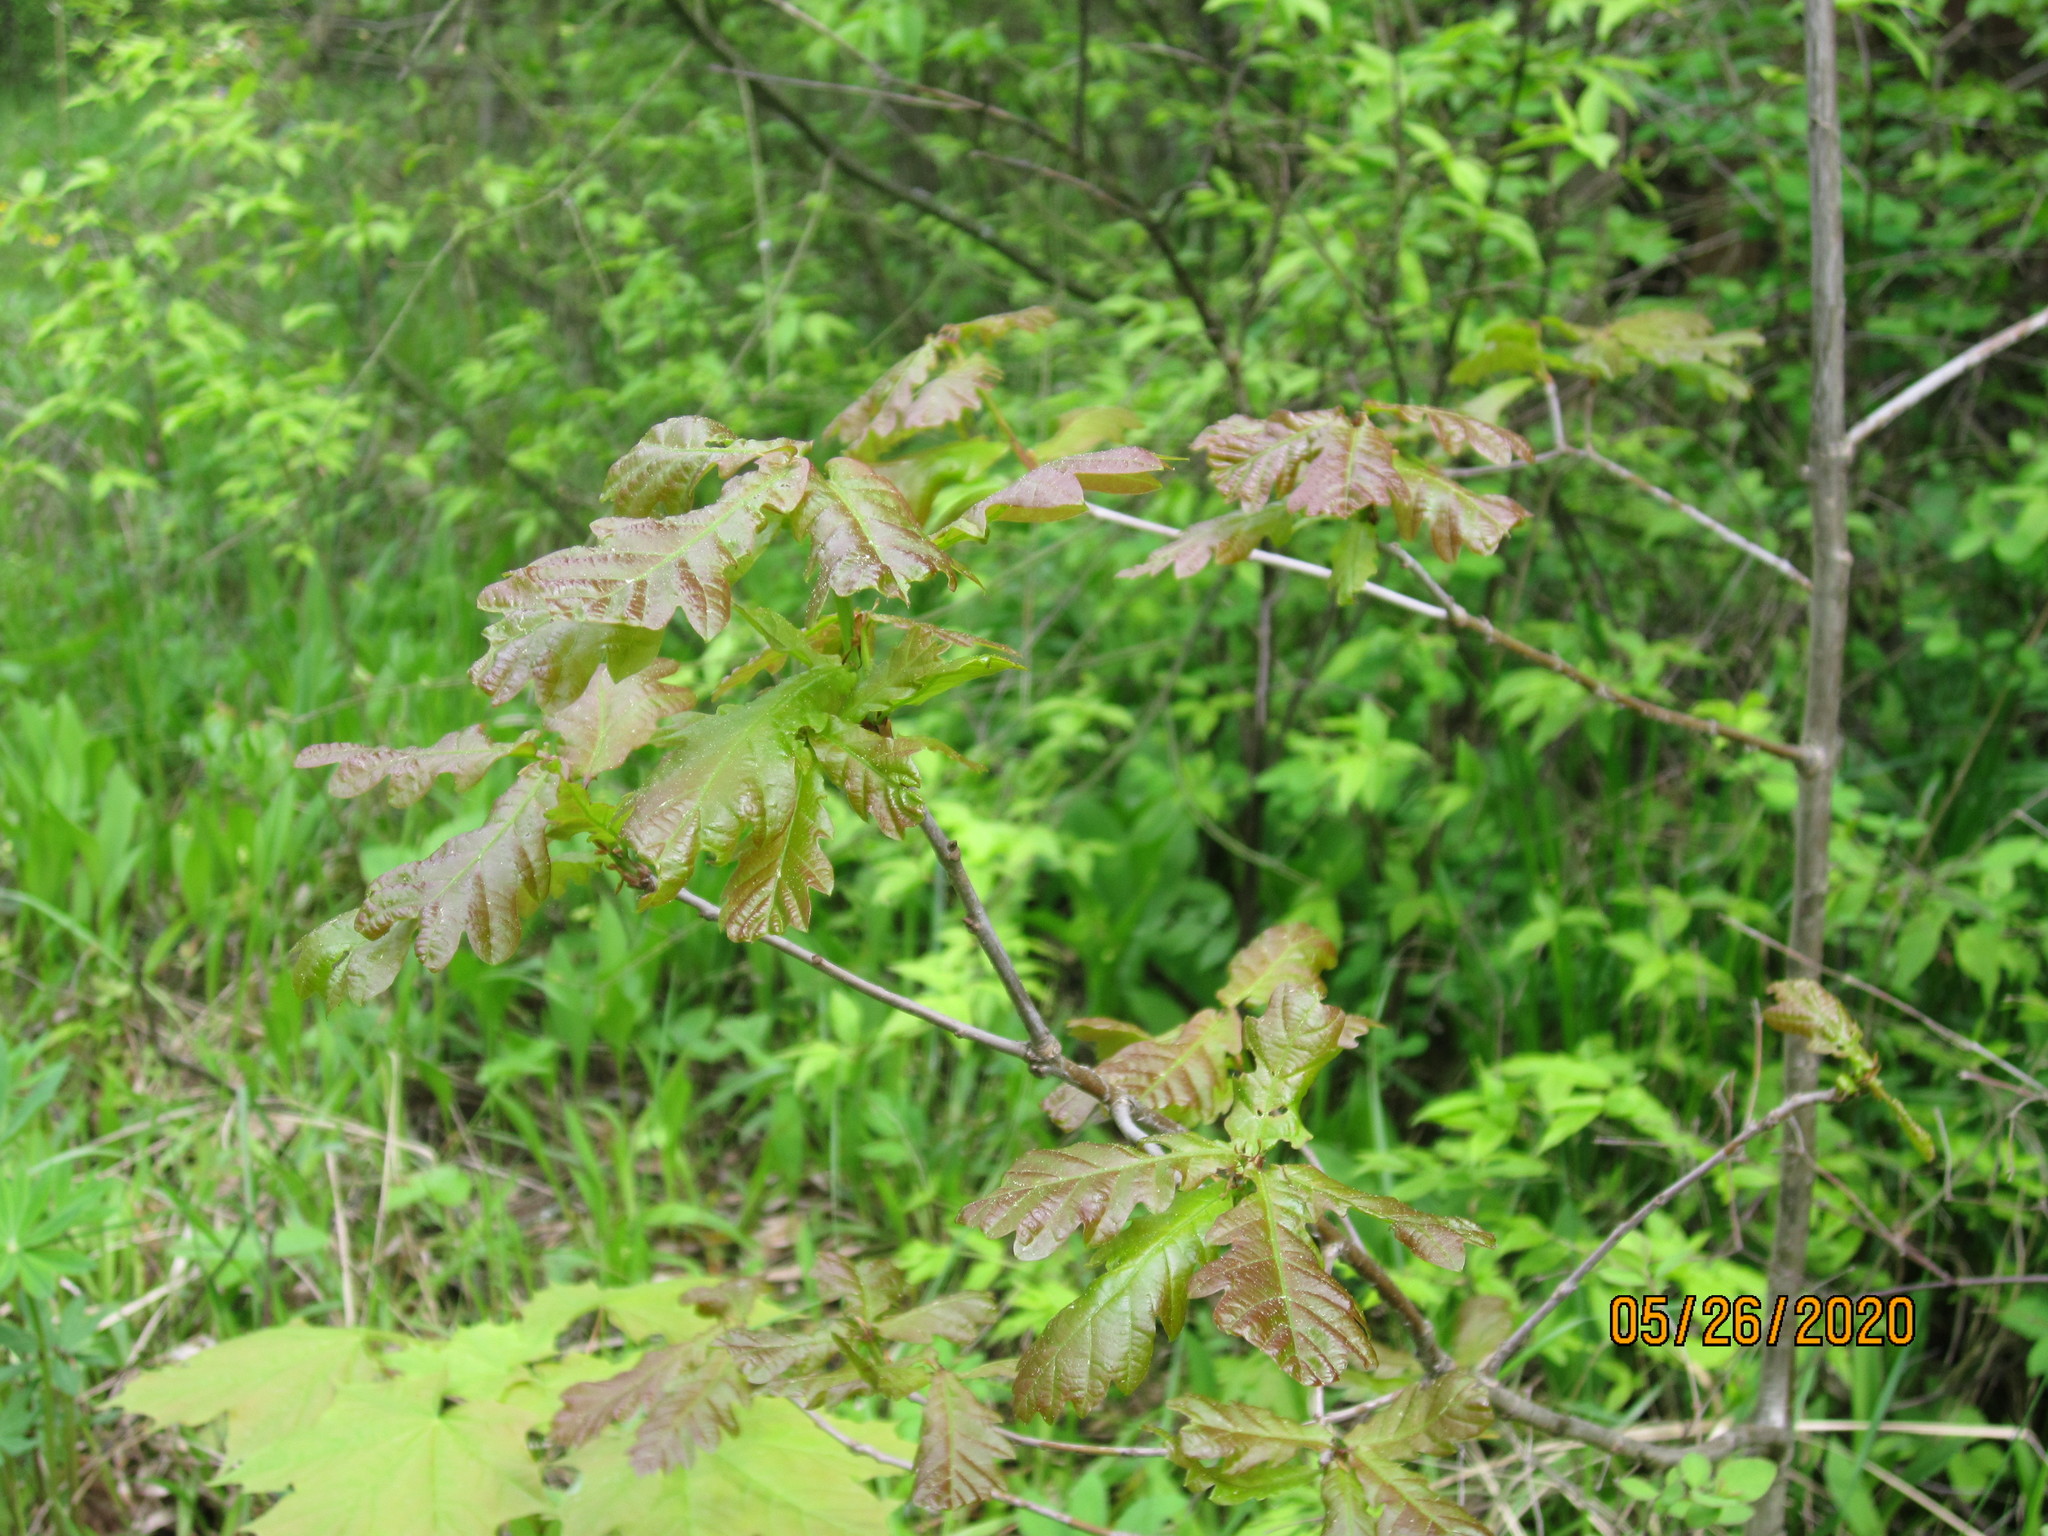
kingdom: Plantae
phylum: Tracheophyta
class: Magnoliopsida
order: Fagales
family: Fagaceae
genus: Quercus
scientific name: Quercus robur
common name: Pedunculate oak
